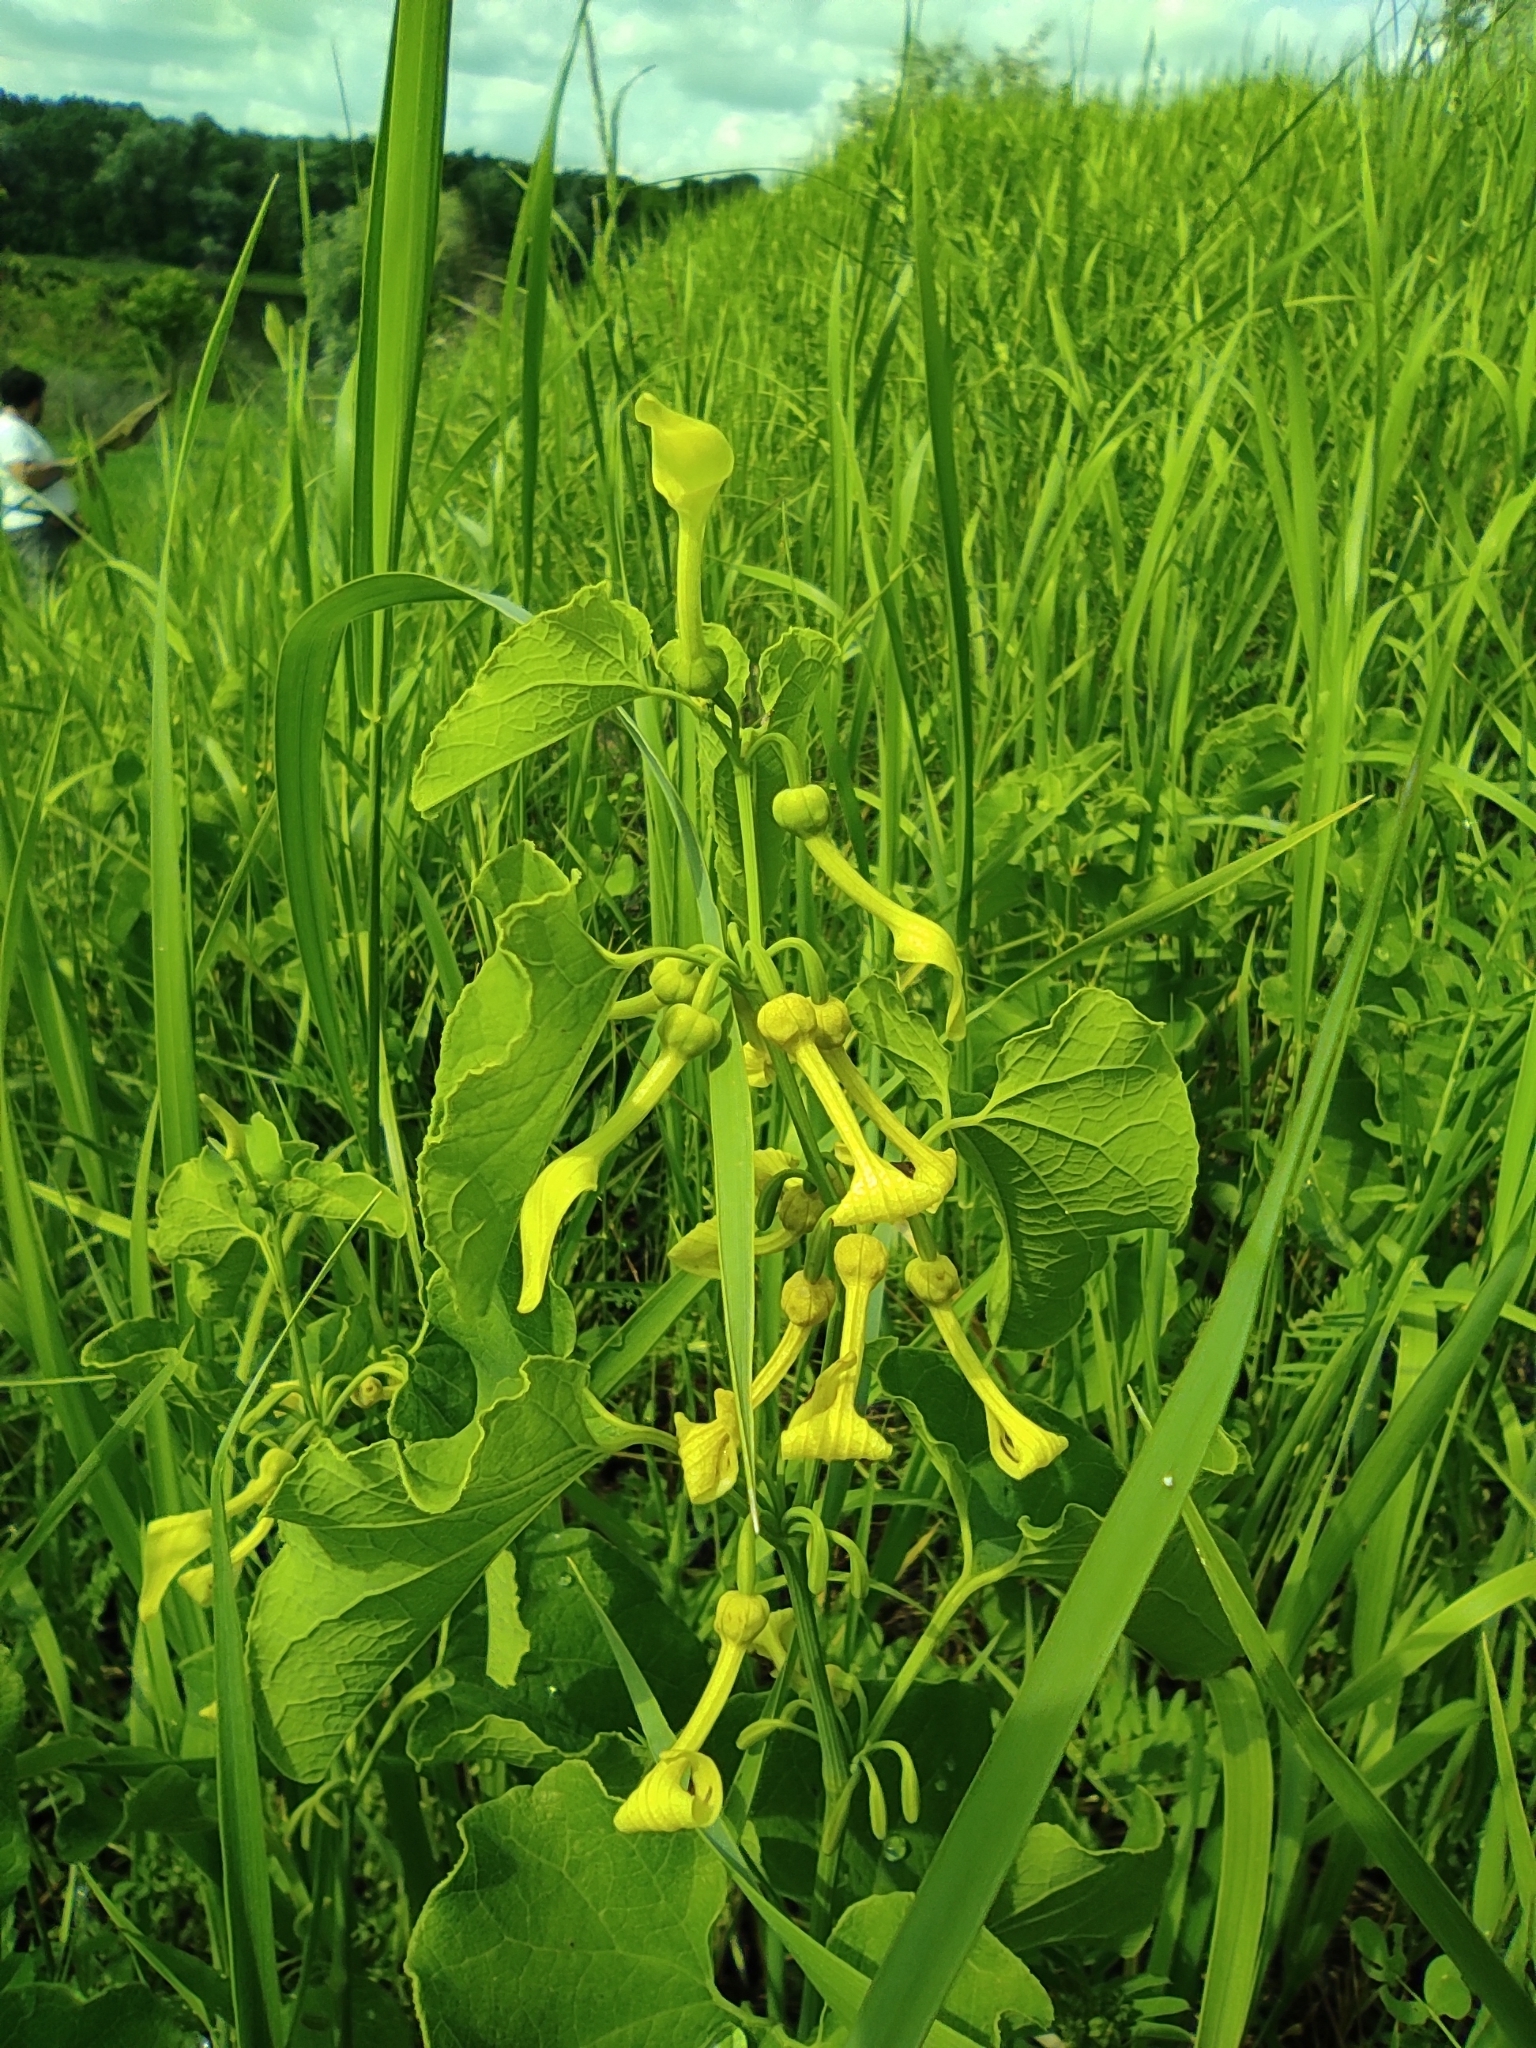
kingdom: Plantae
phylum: Tracheophyta
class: Magnoliopsida
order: Piperales
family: Aristolochiaceae
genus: Aristolochia
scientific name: Aristolochia clematitis
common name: Birthwort
